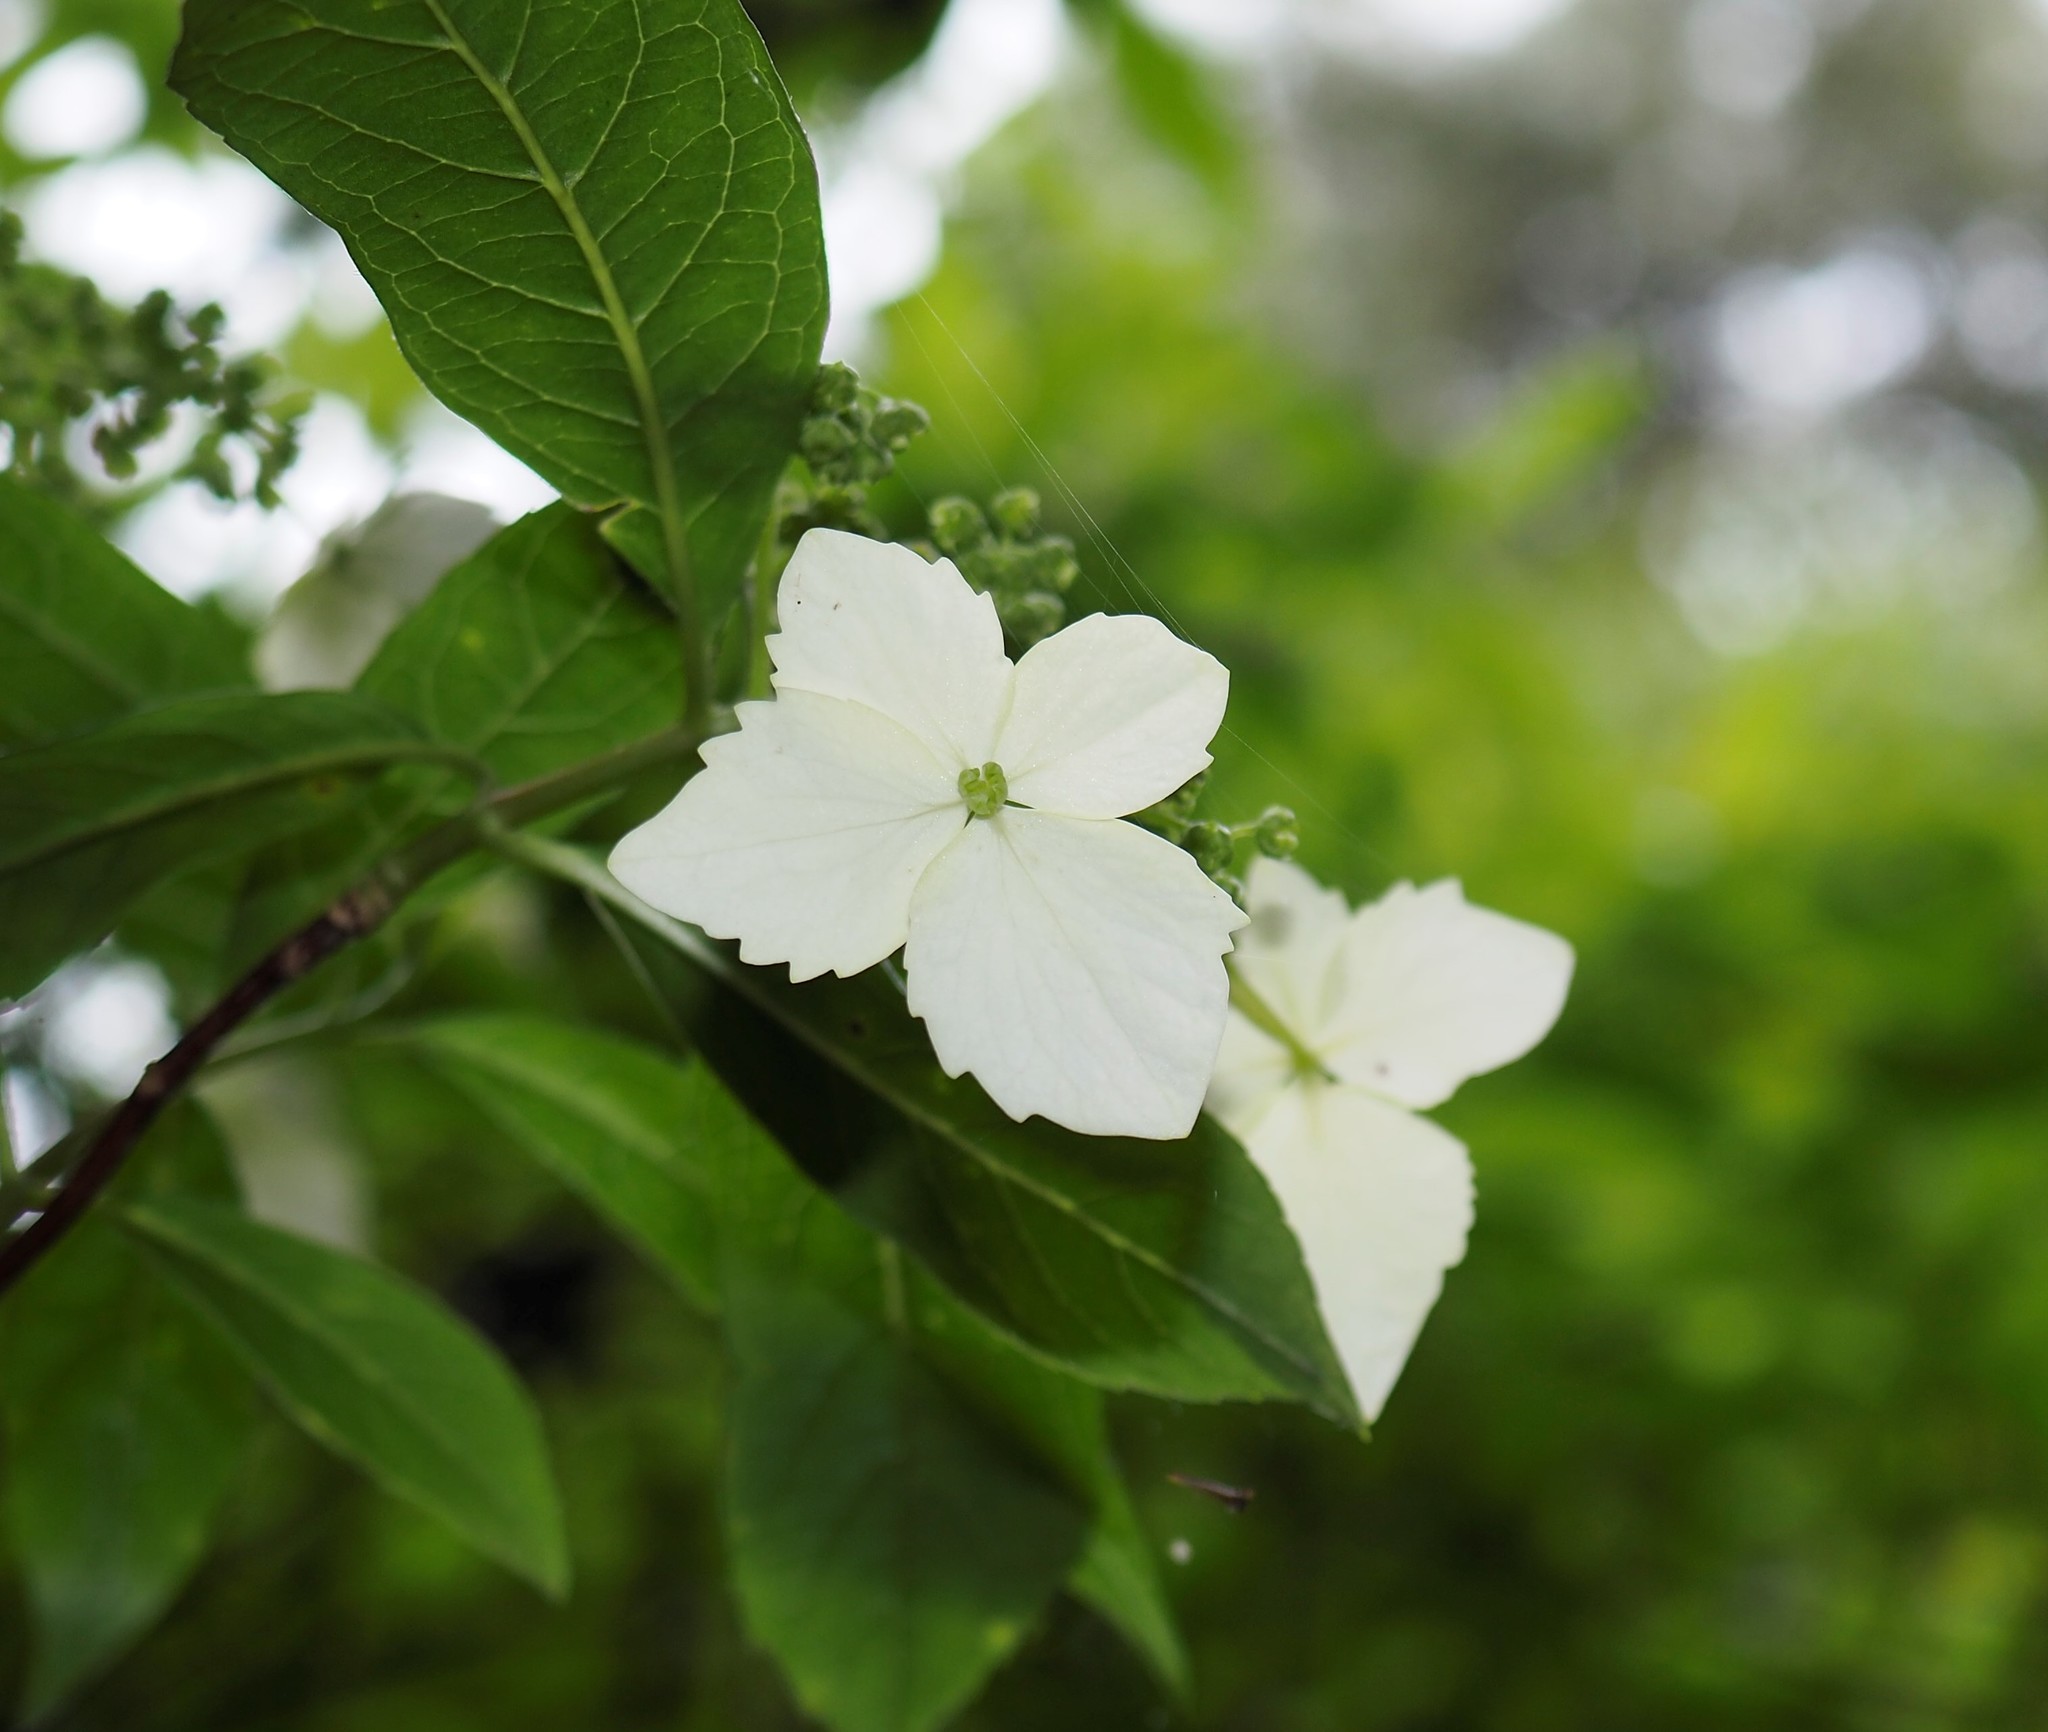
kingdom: Plantae
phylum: Tracheophyta
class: Magnoliopsida
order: Cornales
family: Hydrangeaceae
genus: Hydrangea
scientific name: Hydrangea chinensis
